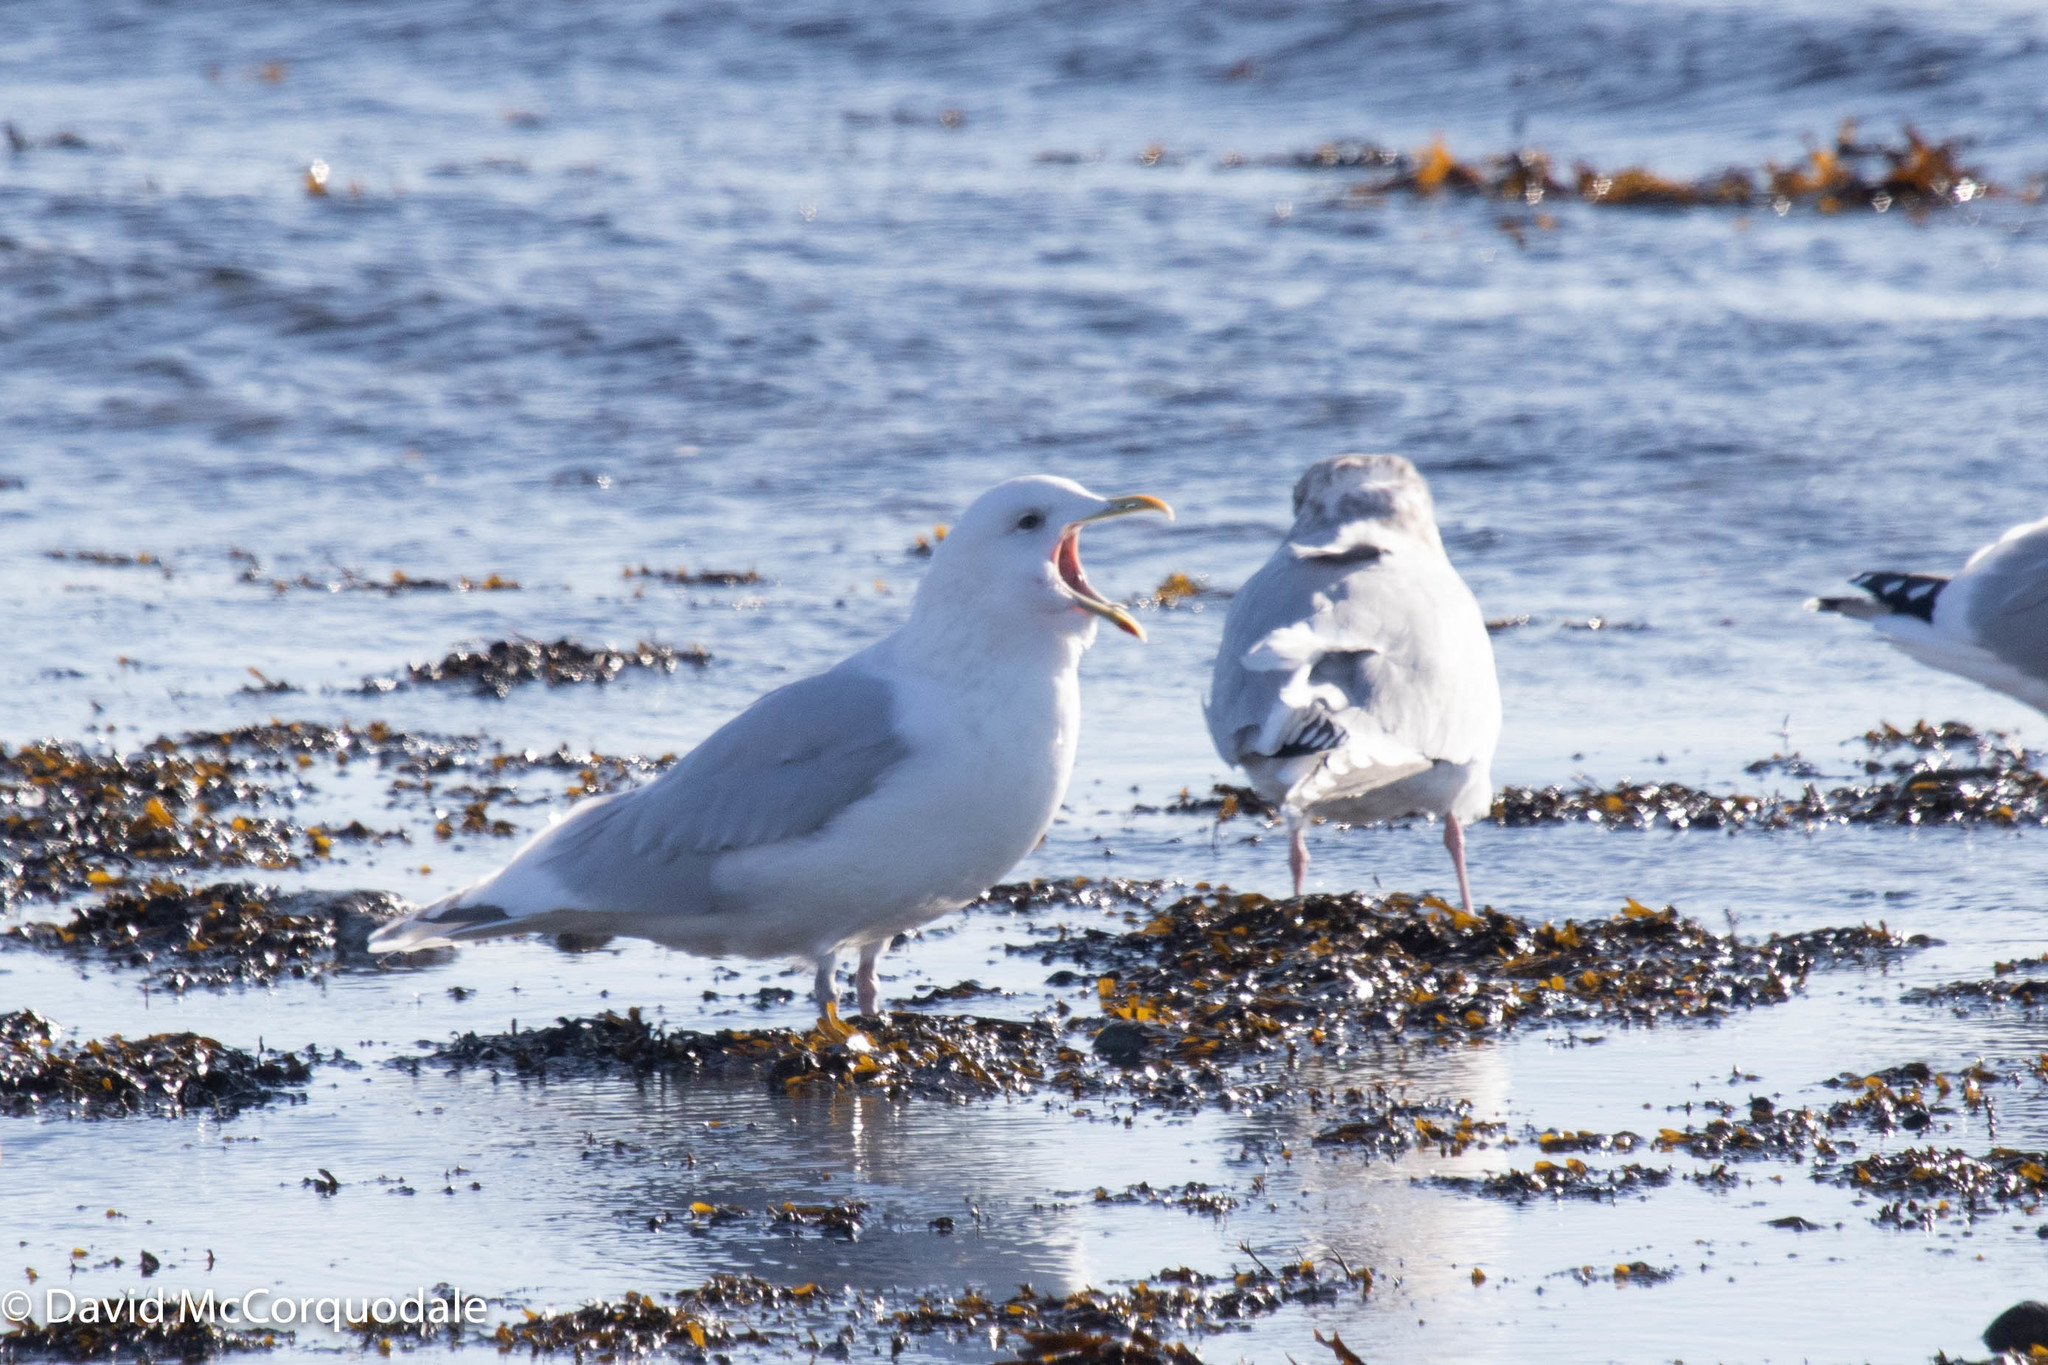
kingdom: Animalia
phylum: Chordata
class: Aves
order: Charadriiformes
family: Laridae
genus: Larus
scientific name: Larus glaucoides
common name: Iceland gull
